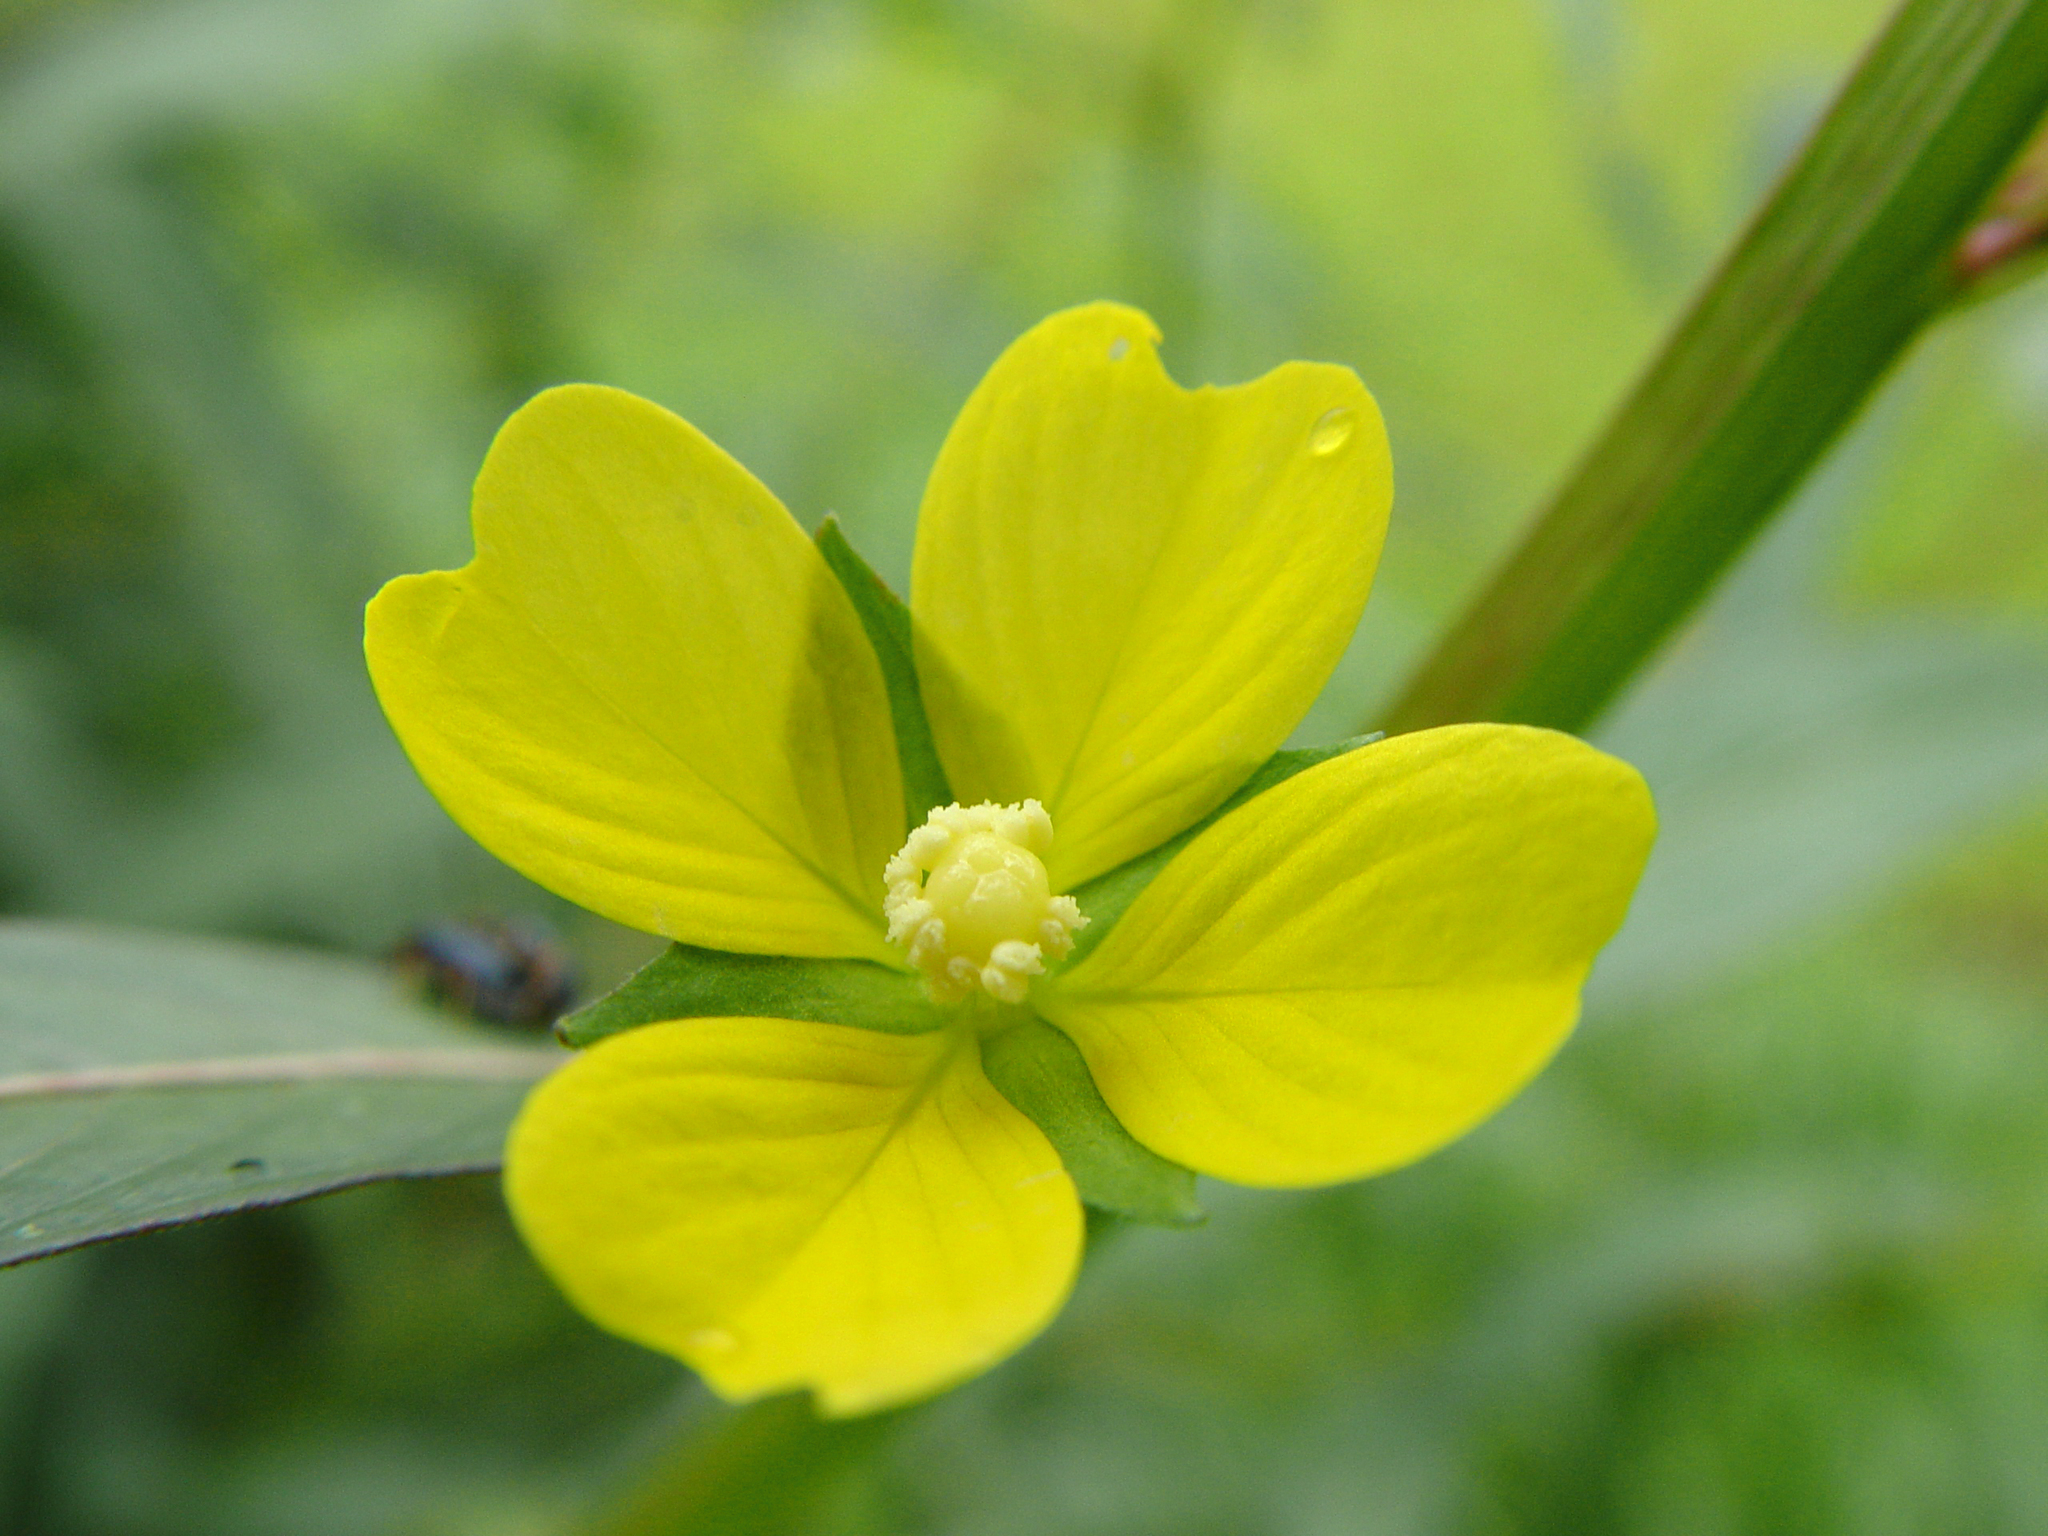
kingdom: Plantae
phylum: Tracheophyta
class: Magnoliopsida
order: Myrtales
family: Onagraceae
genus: Ludwigia
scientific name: Ludwigia alternifolia
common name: Rattlebox
